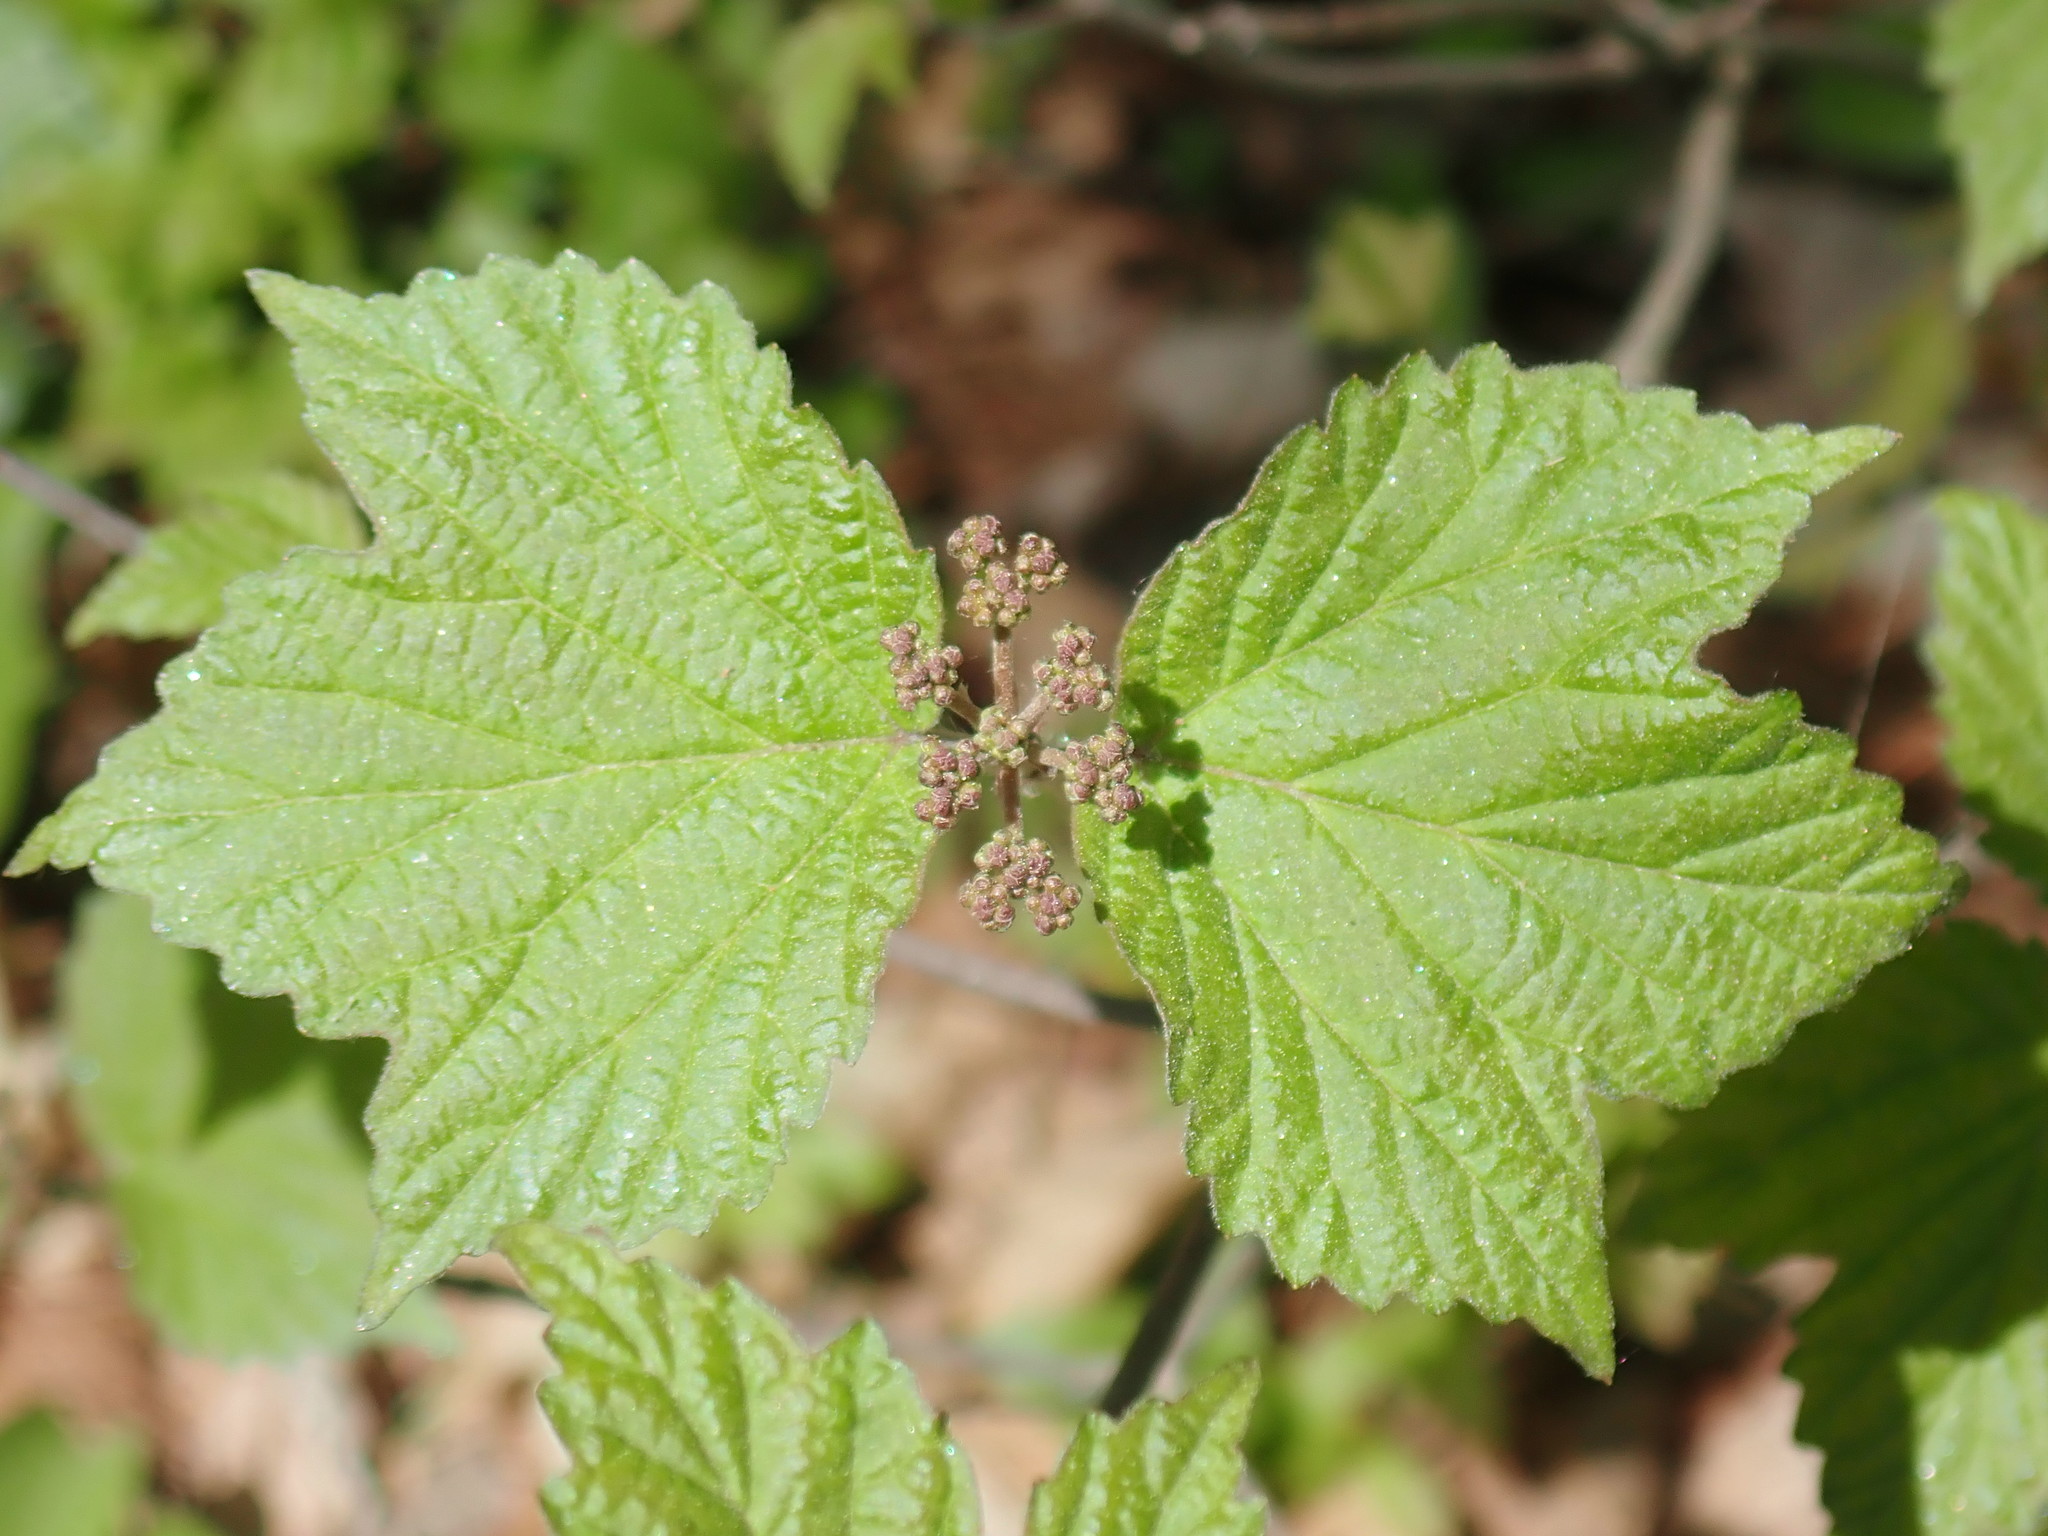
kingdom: Plantae
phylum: Tracheophyta
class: Magnoliopsida
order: Dipsacales
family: Viburnaceae
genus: Viburnum
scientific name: Viburnum acerifolium
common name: Dockmackie
